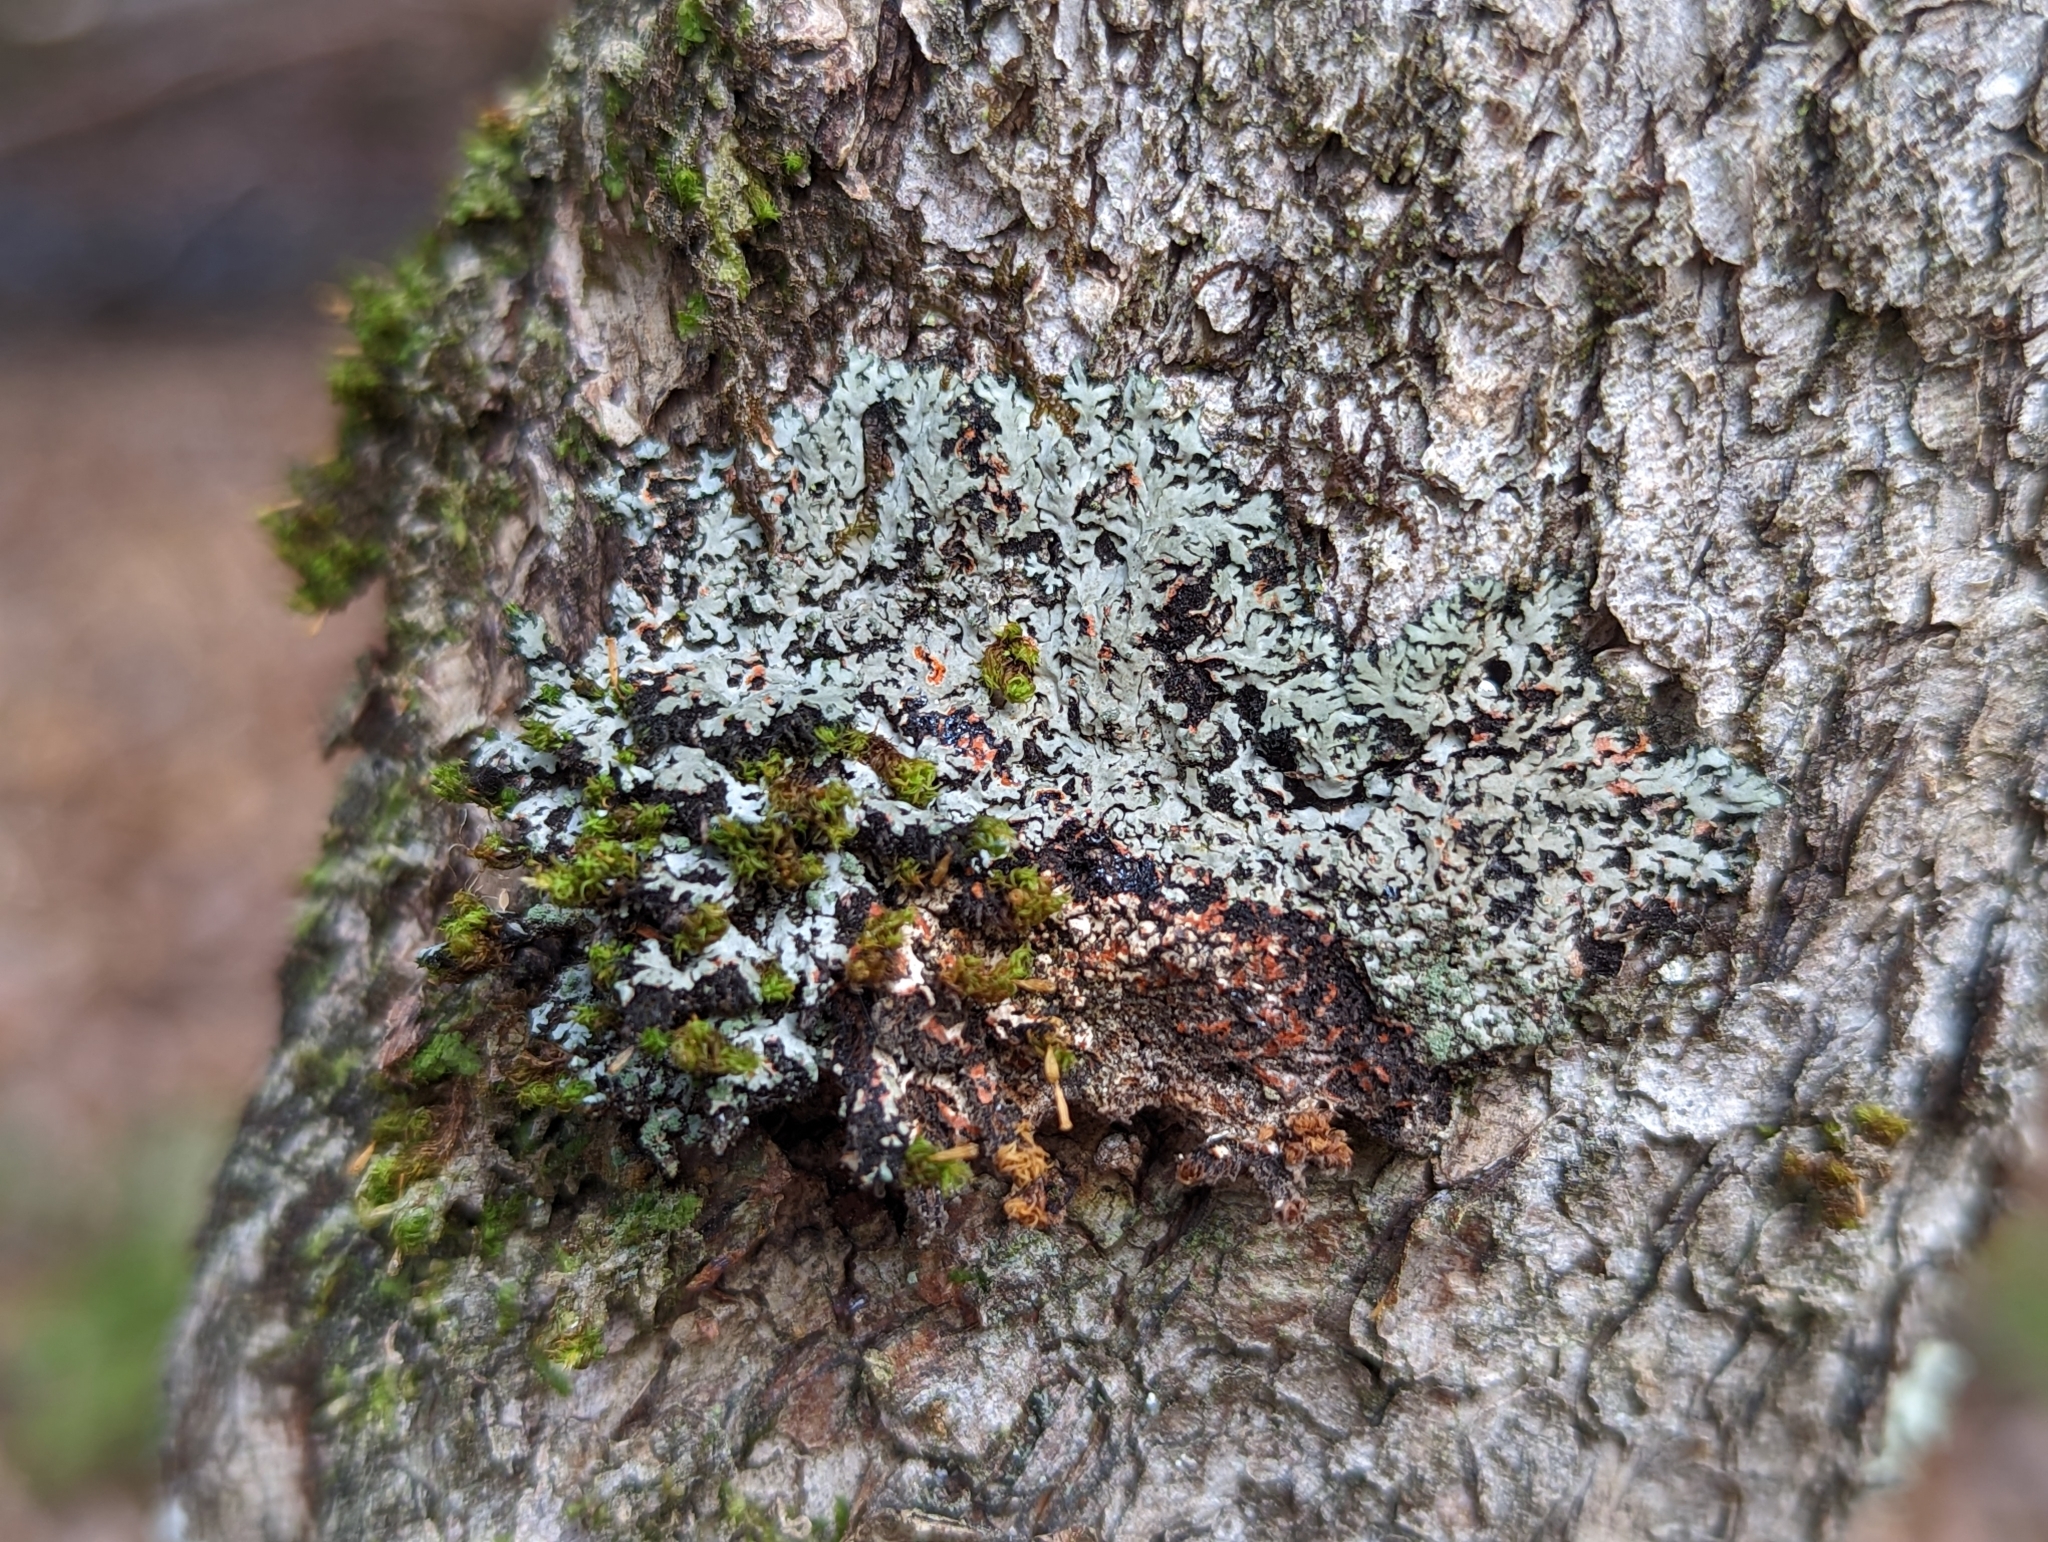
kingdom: Fungi
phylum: Ascomycota
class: Lecanoromycetes
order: Caliciales
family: Physciaceae
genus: Phaeophyscia
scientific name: Phaeophyscia rubropulchra
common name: Orange-cored shadow lichen
